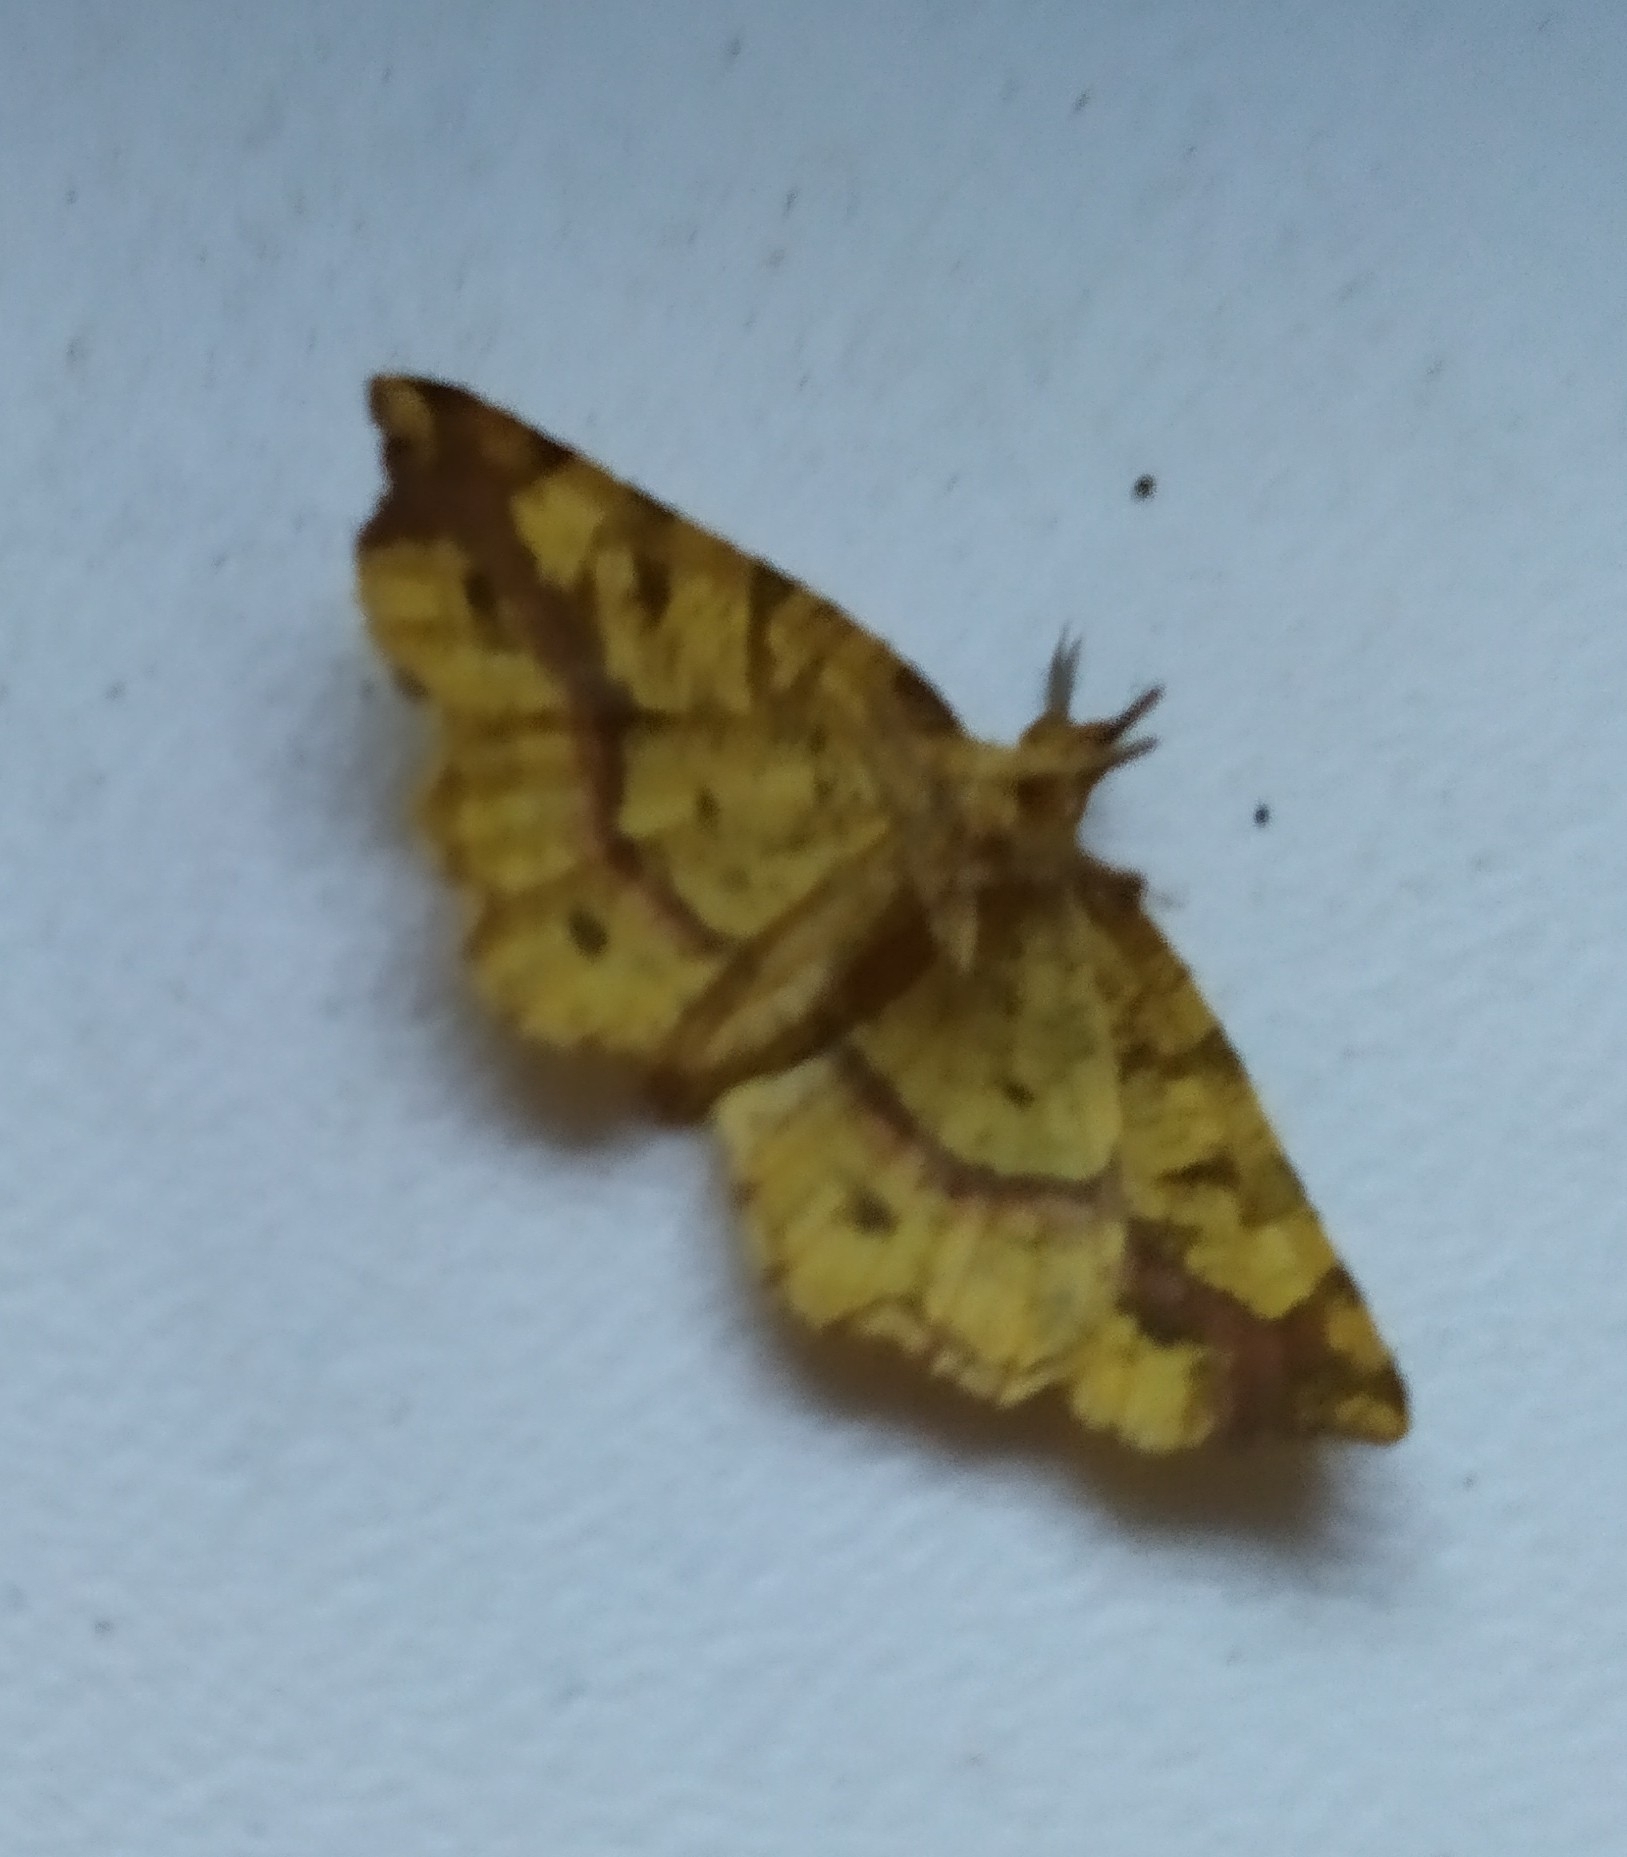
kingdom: Animalia
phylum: Arthropoda
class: Insecta
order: Lepidoptera
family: Geometridae
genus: Therapis
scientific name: Therapis flavicaria
